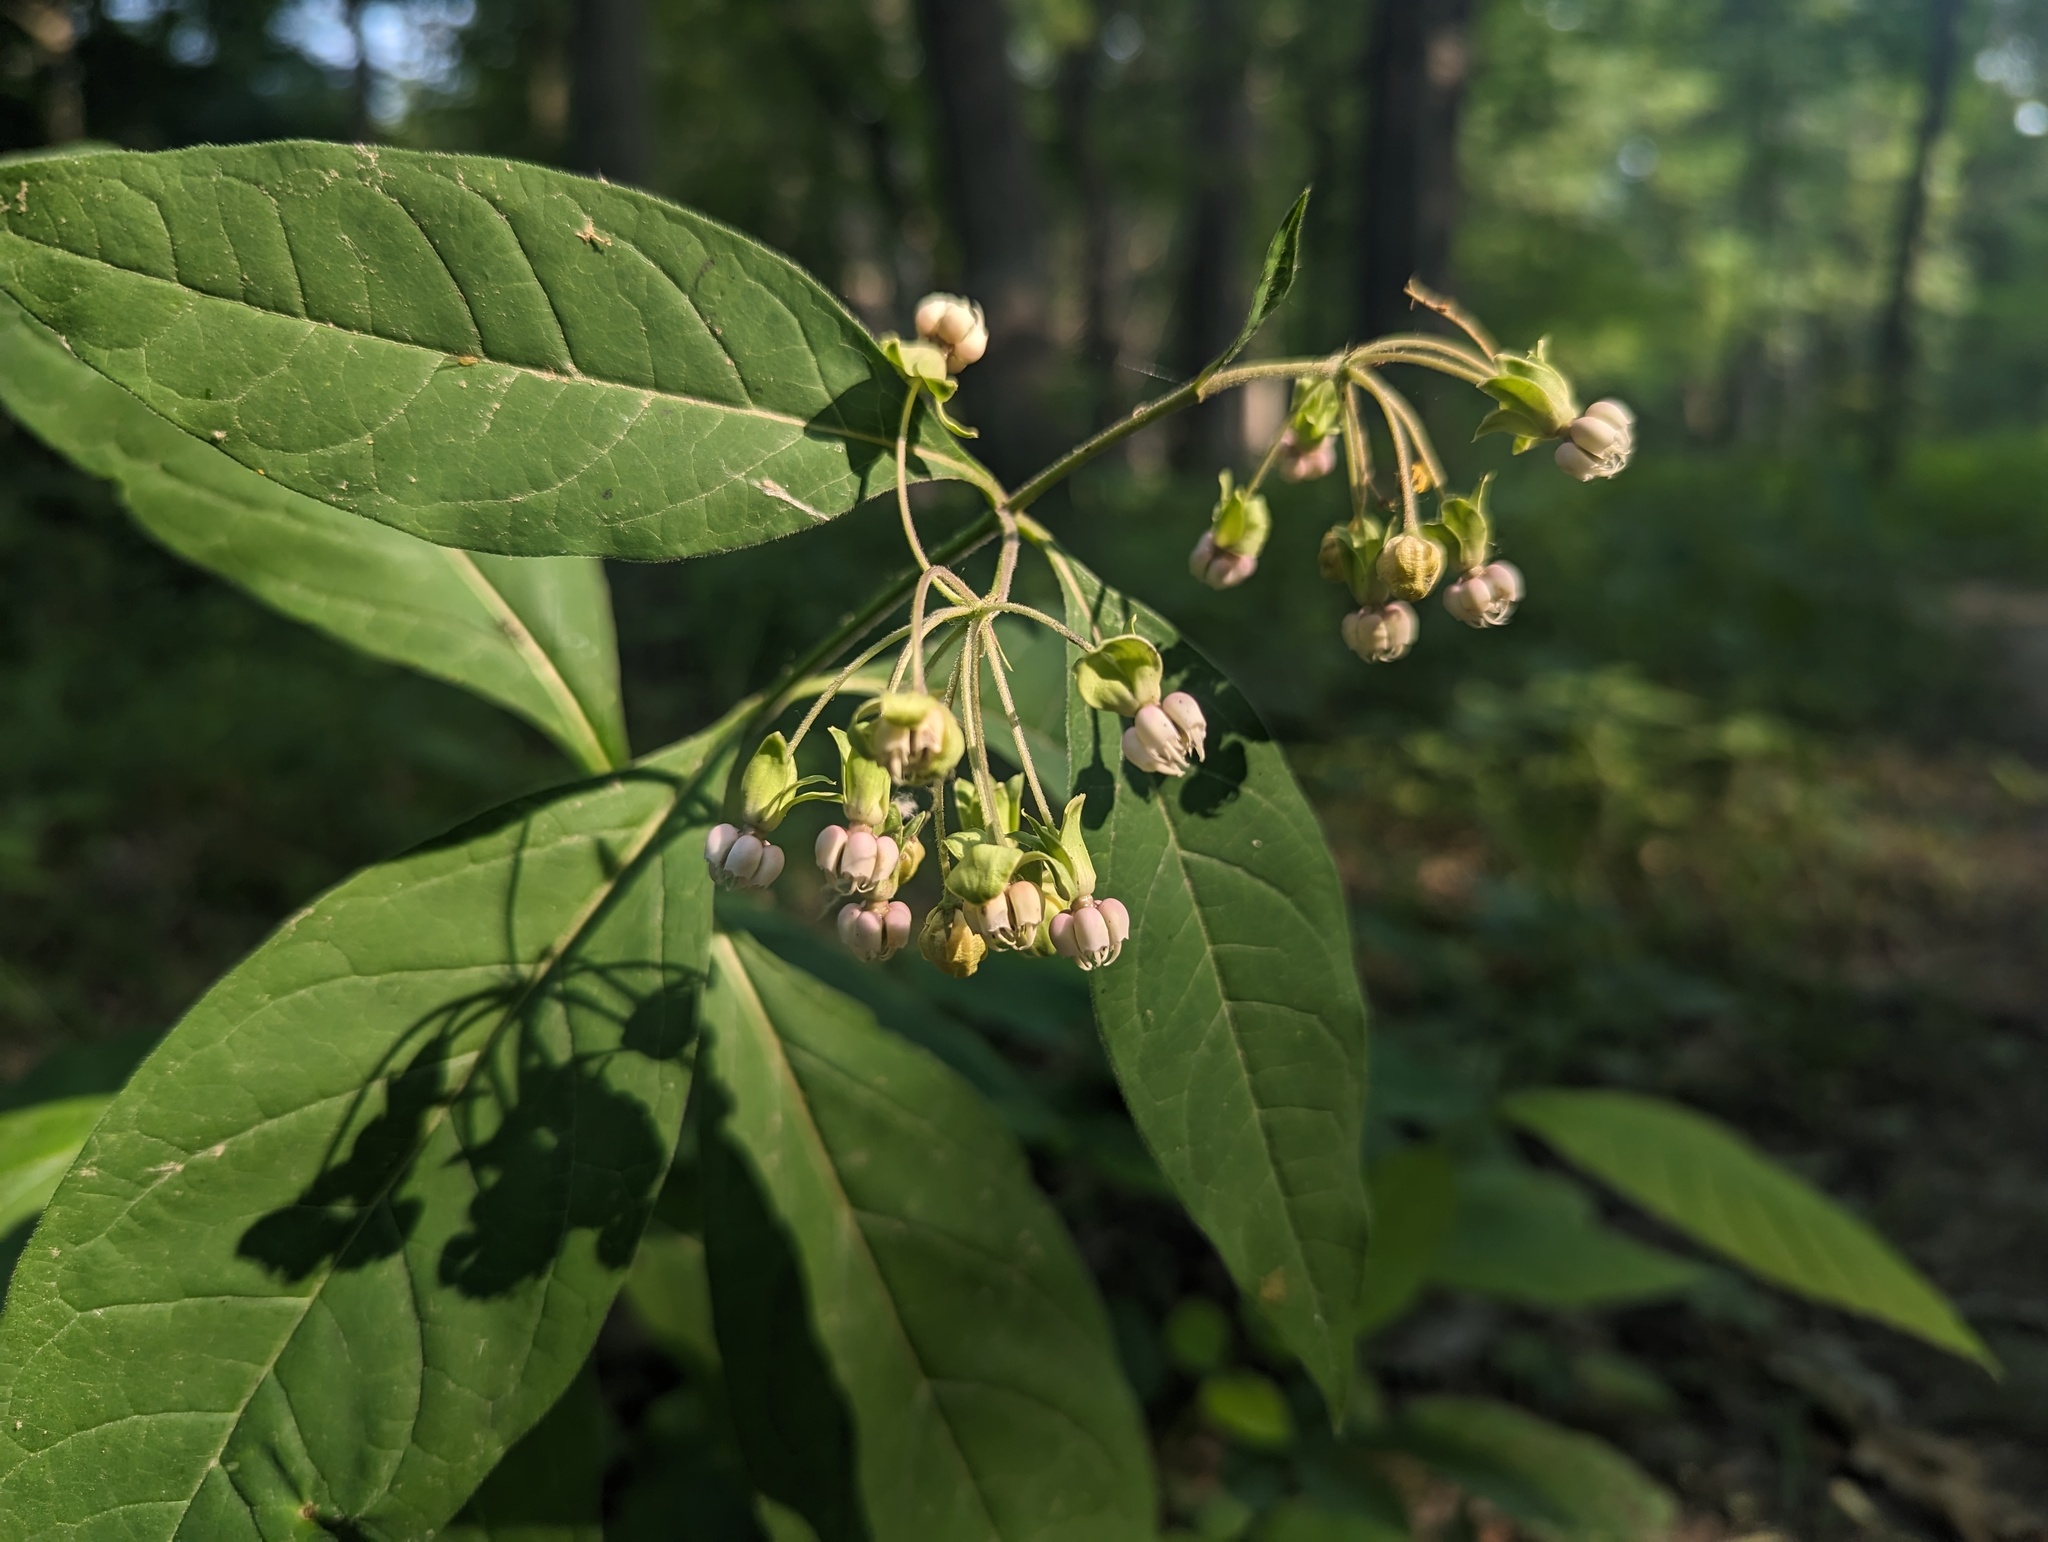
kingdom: Plantae
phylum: Tracheophyta
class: Magnoliopsida
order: Gentianales
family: Apocynaceae
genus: Asclepias
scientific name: Asclepias exaltata
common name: Poke milkweed
